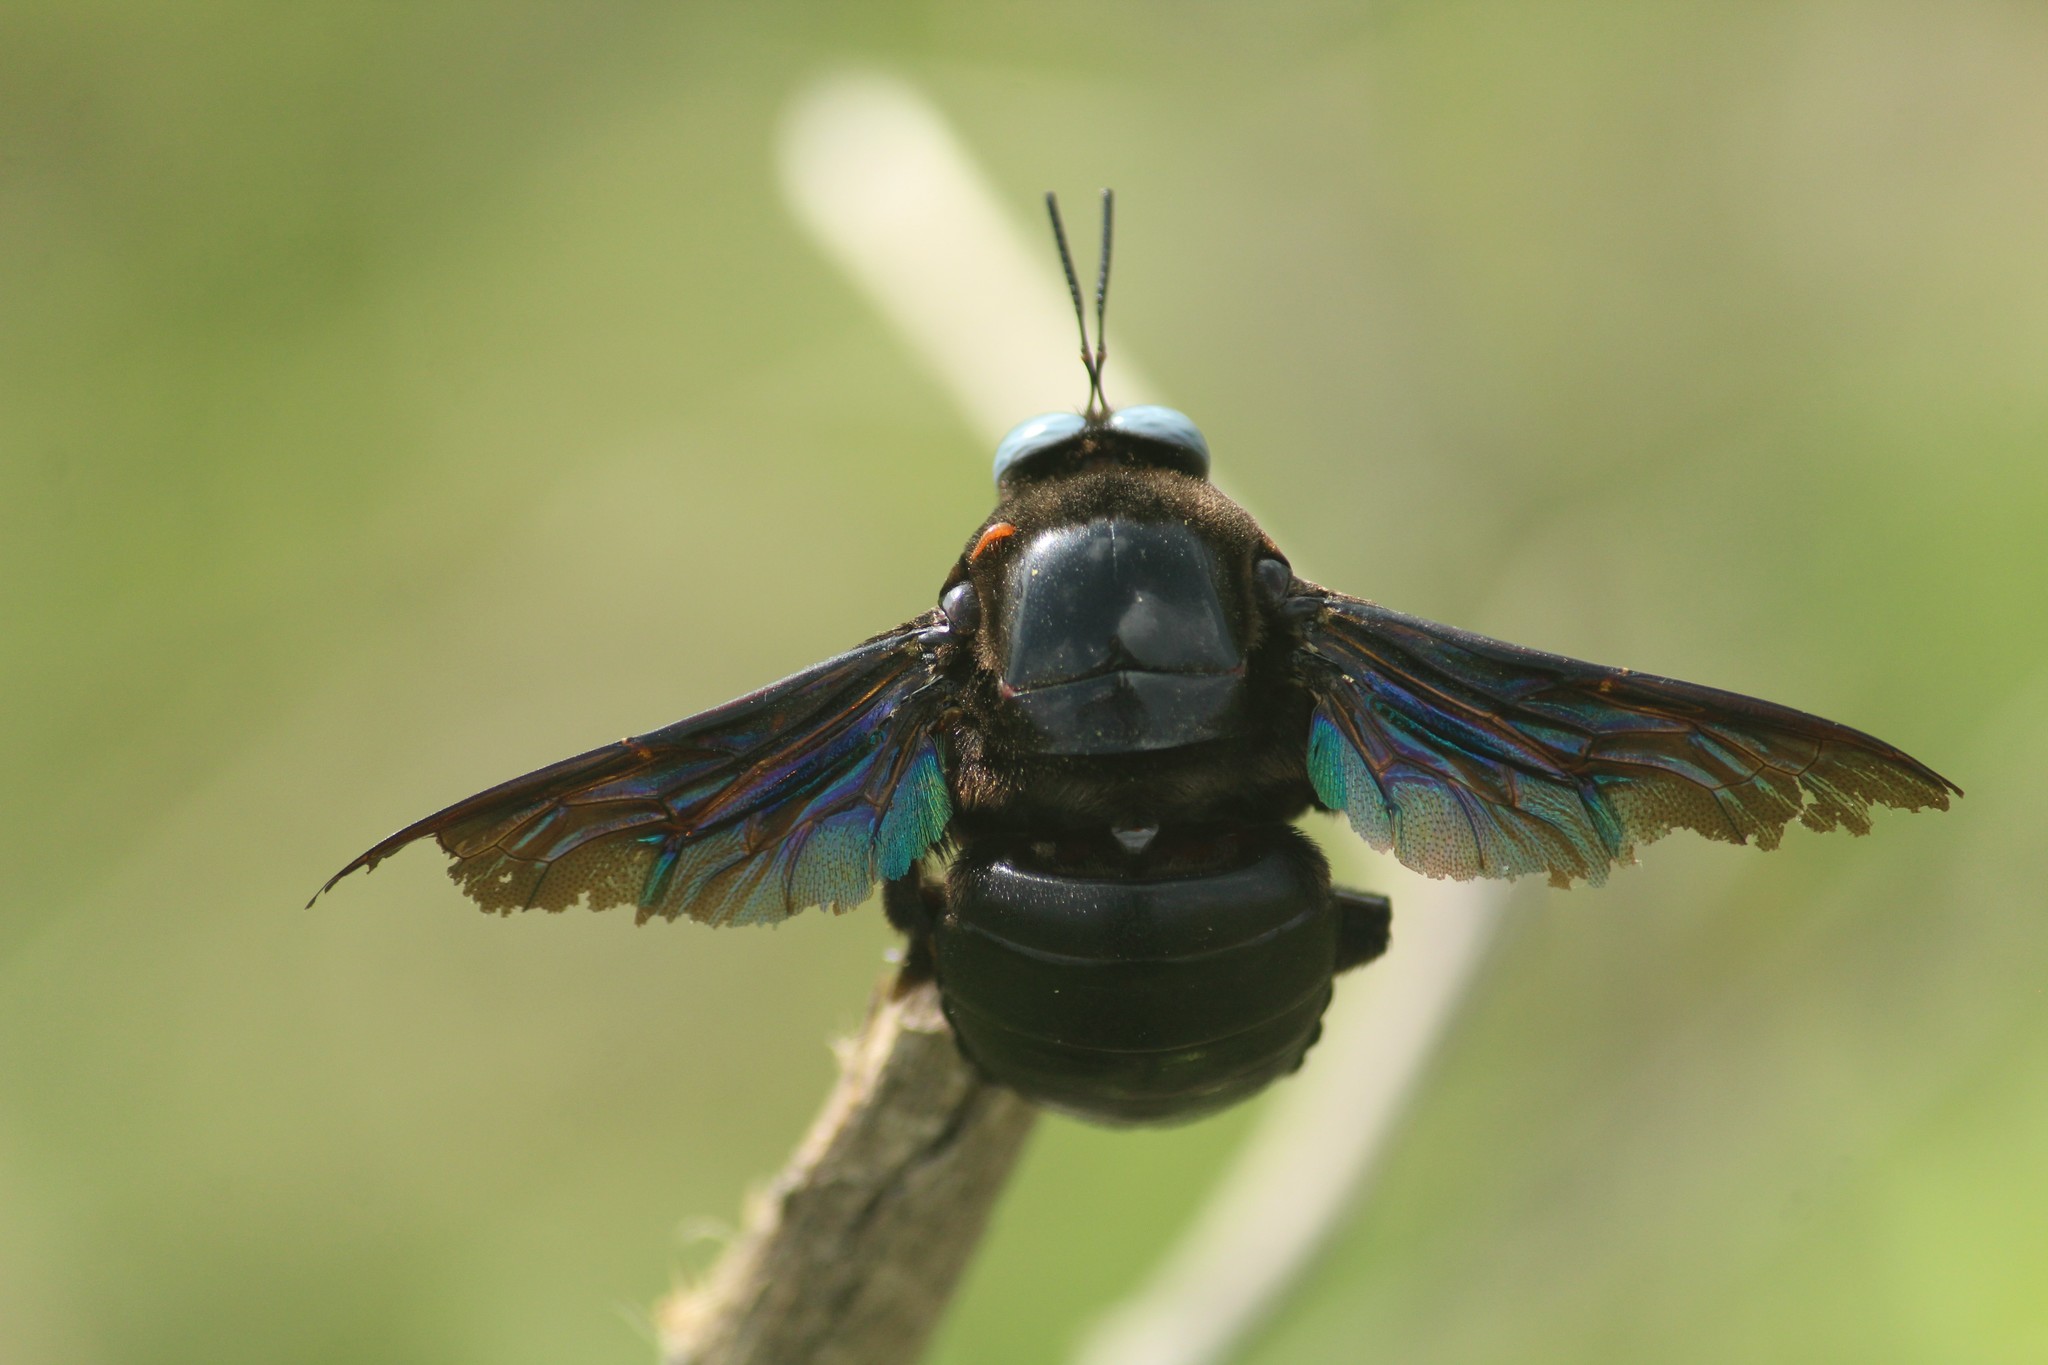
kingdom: Animalia
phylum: Arthropoda
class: Insecta
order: Hymenoptera
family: Apidae
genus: Xylocopa
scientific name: Xylocopa tenuiscapa
